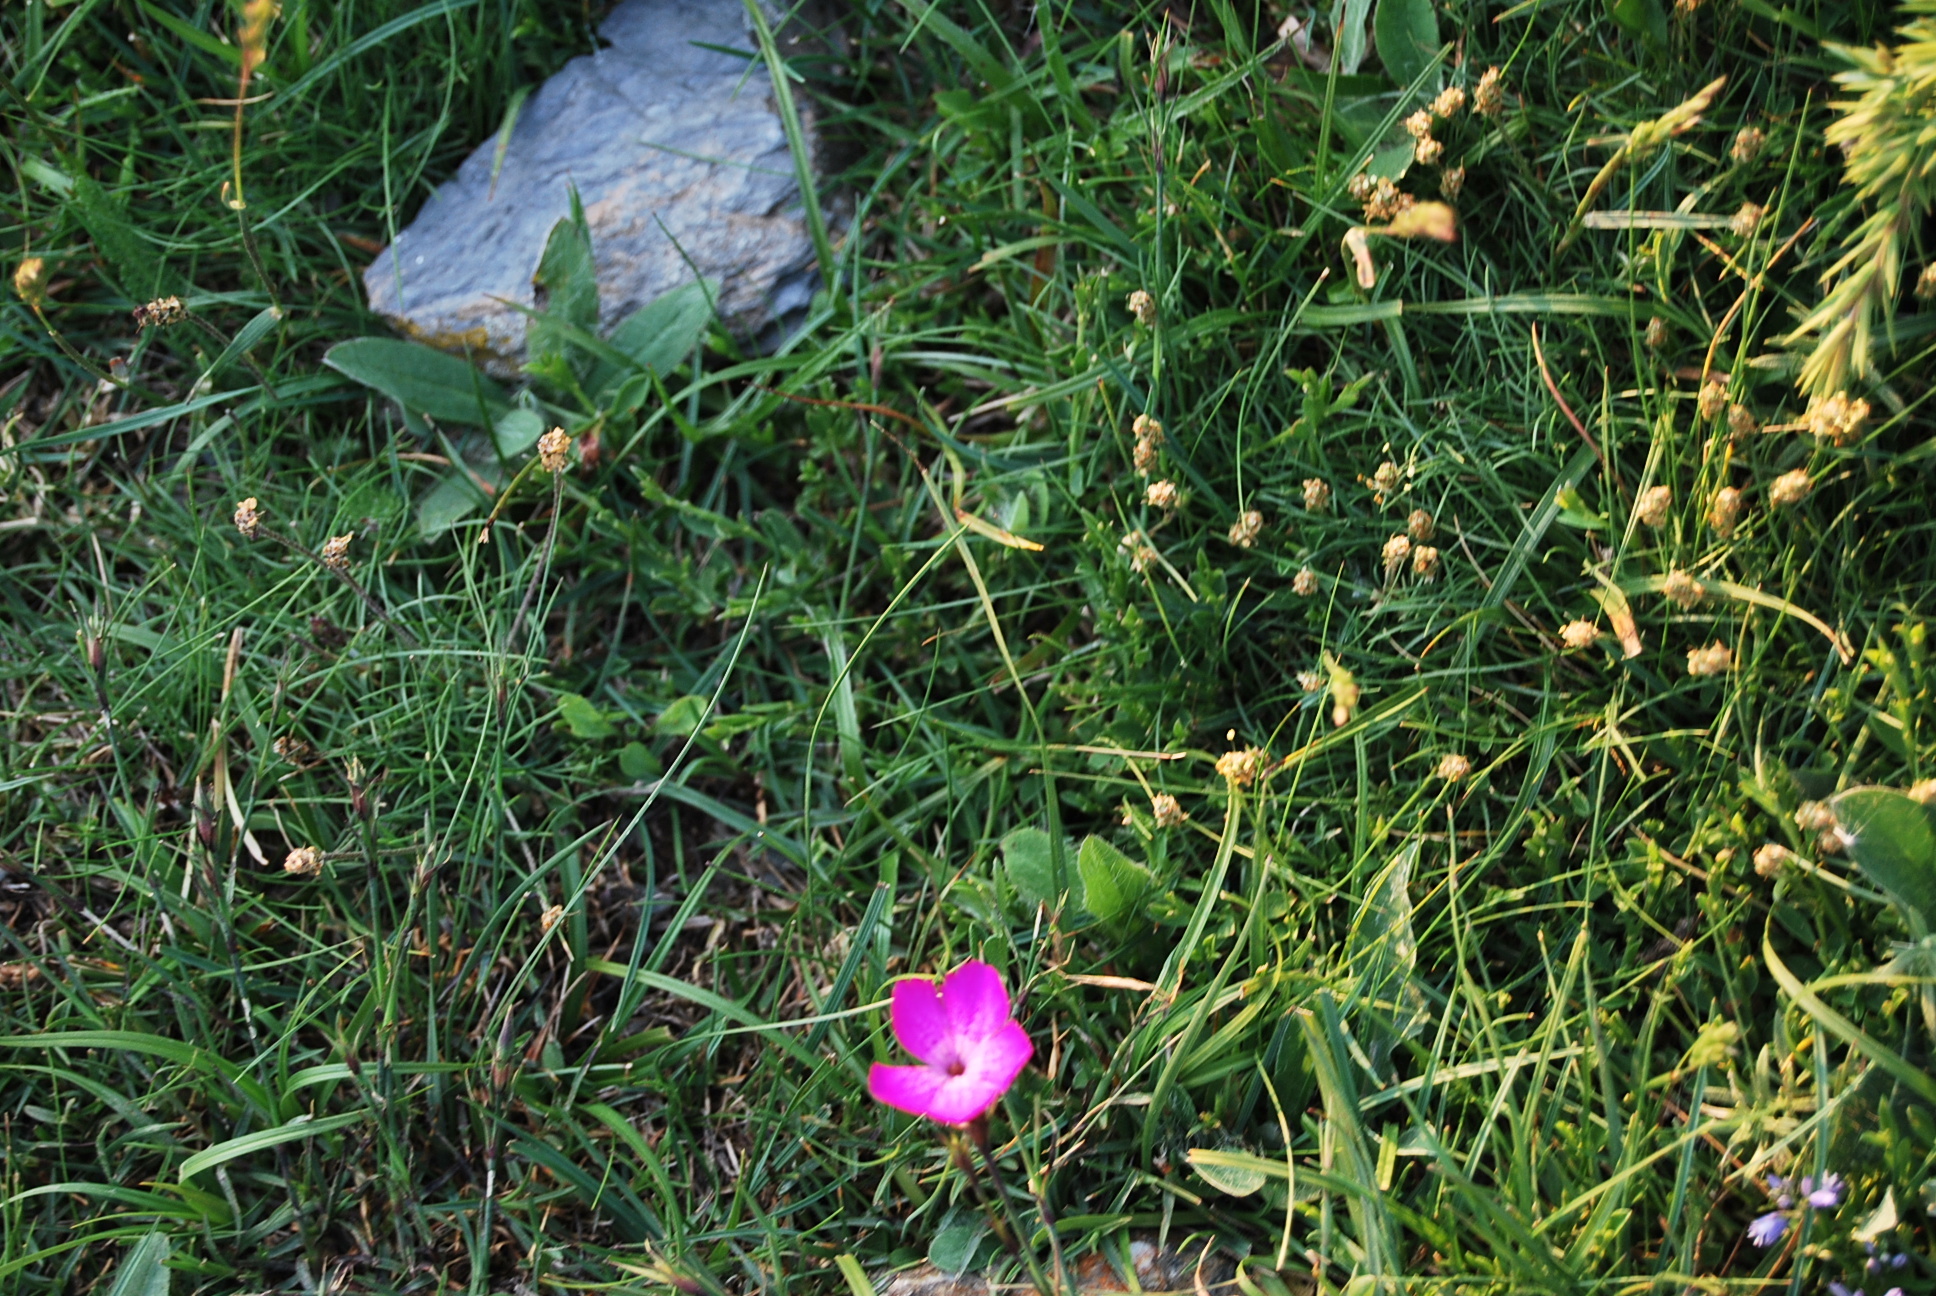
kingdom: Plantae
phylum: Tracheophyta
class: Magnoliopsida
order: Caryophyllales
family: Caryophyllaceae
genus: Dianthus
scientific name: Dianthus seguieri
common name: Ragged pink
